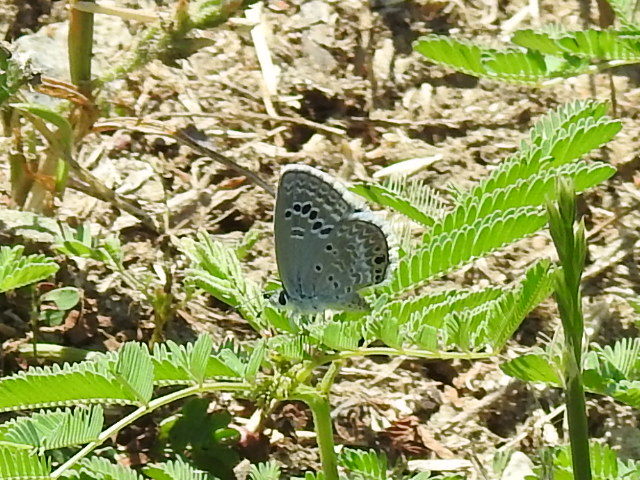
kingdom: Animalia
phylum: Arthropoda
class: Insecta
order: Lepidoptera
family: Lycaenidae
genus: Echinargus
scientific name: Echinargus isola
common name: Reakirt's blue
